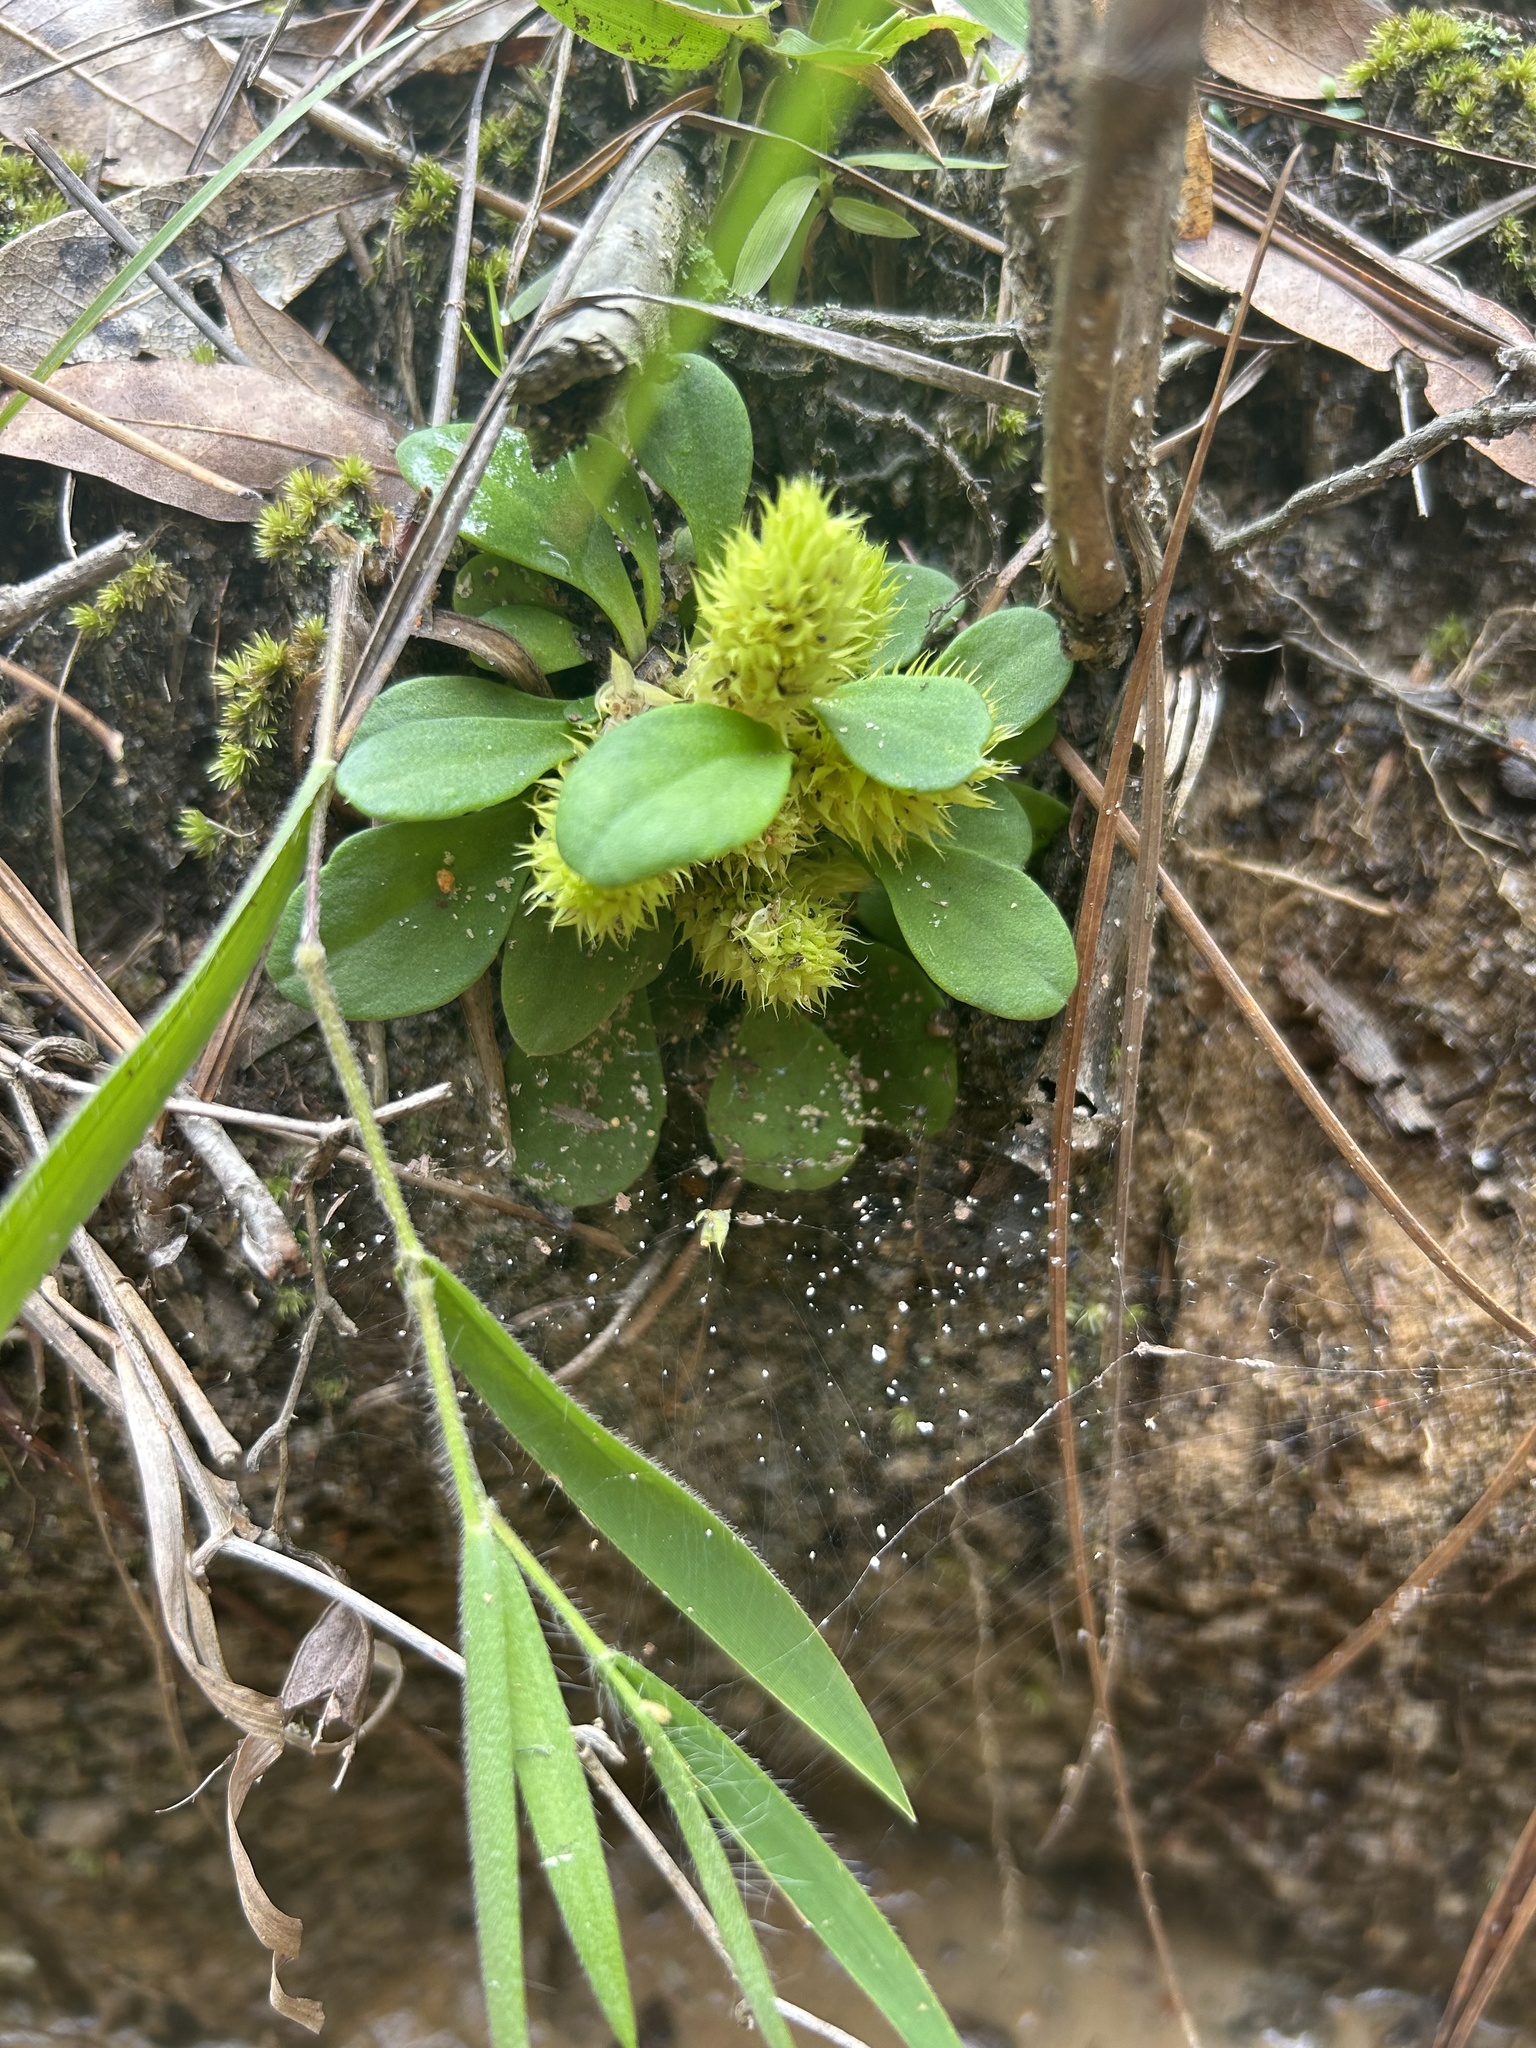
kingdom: Plantae
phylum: Tracheophyta
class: Magnoliopsida
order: Fabales
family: Polygalaceae
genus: Polygala
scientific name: Polygala nana
